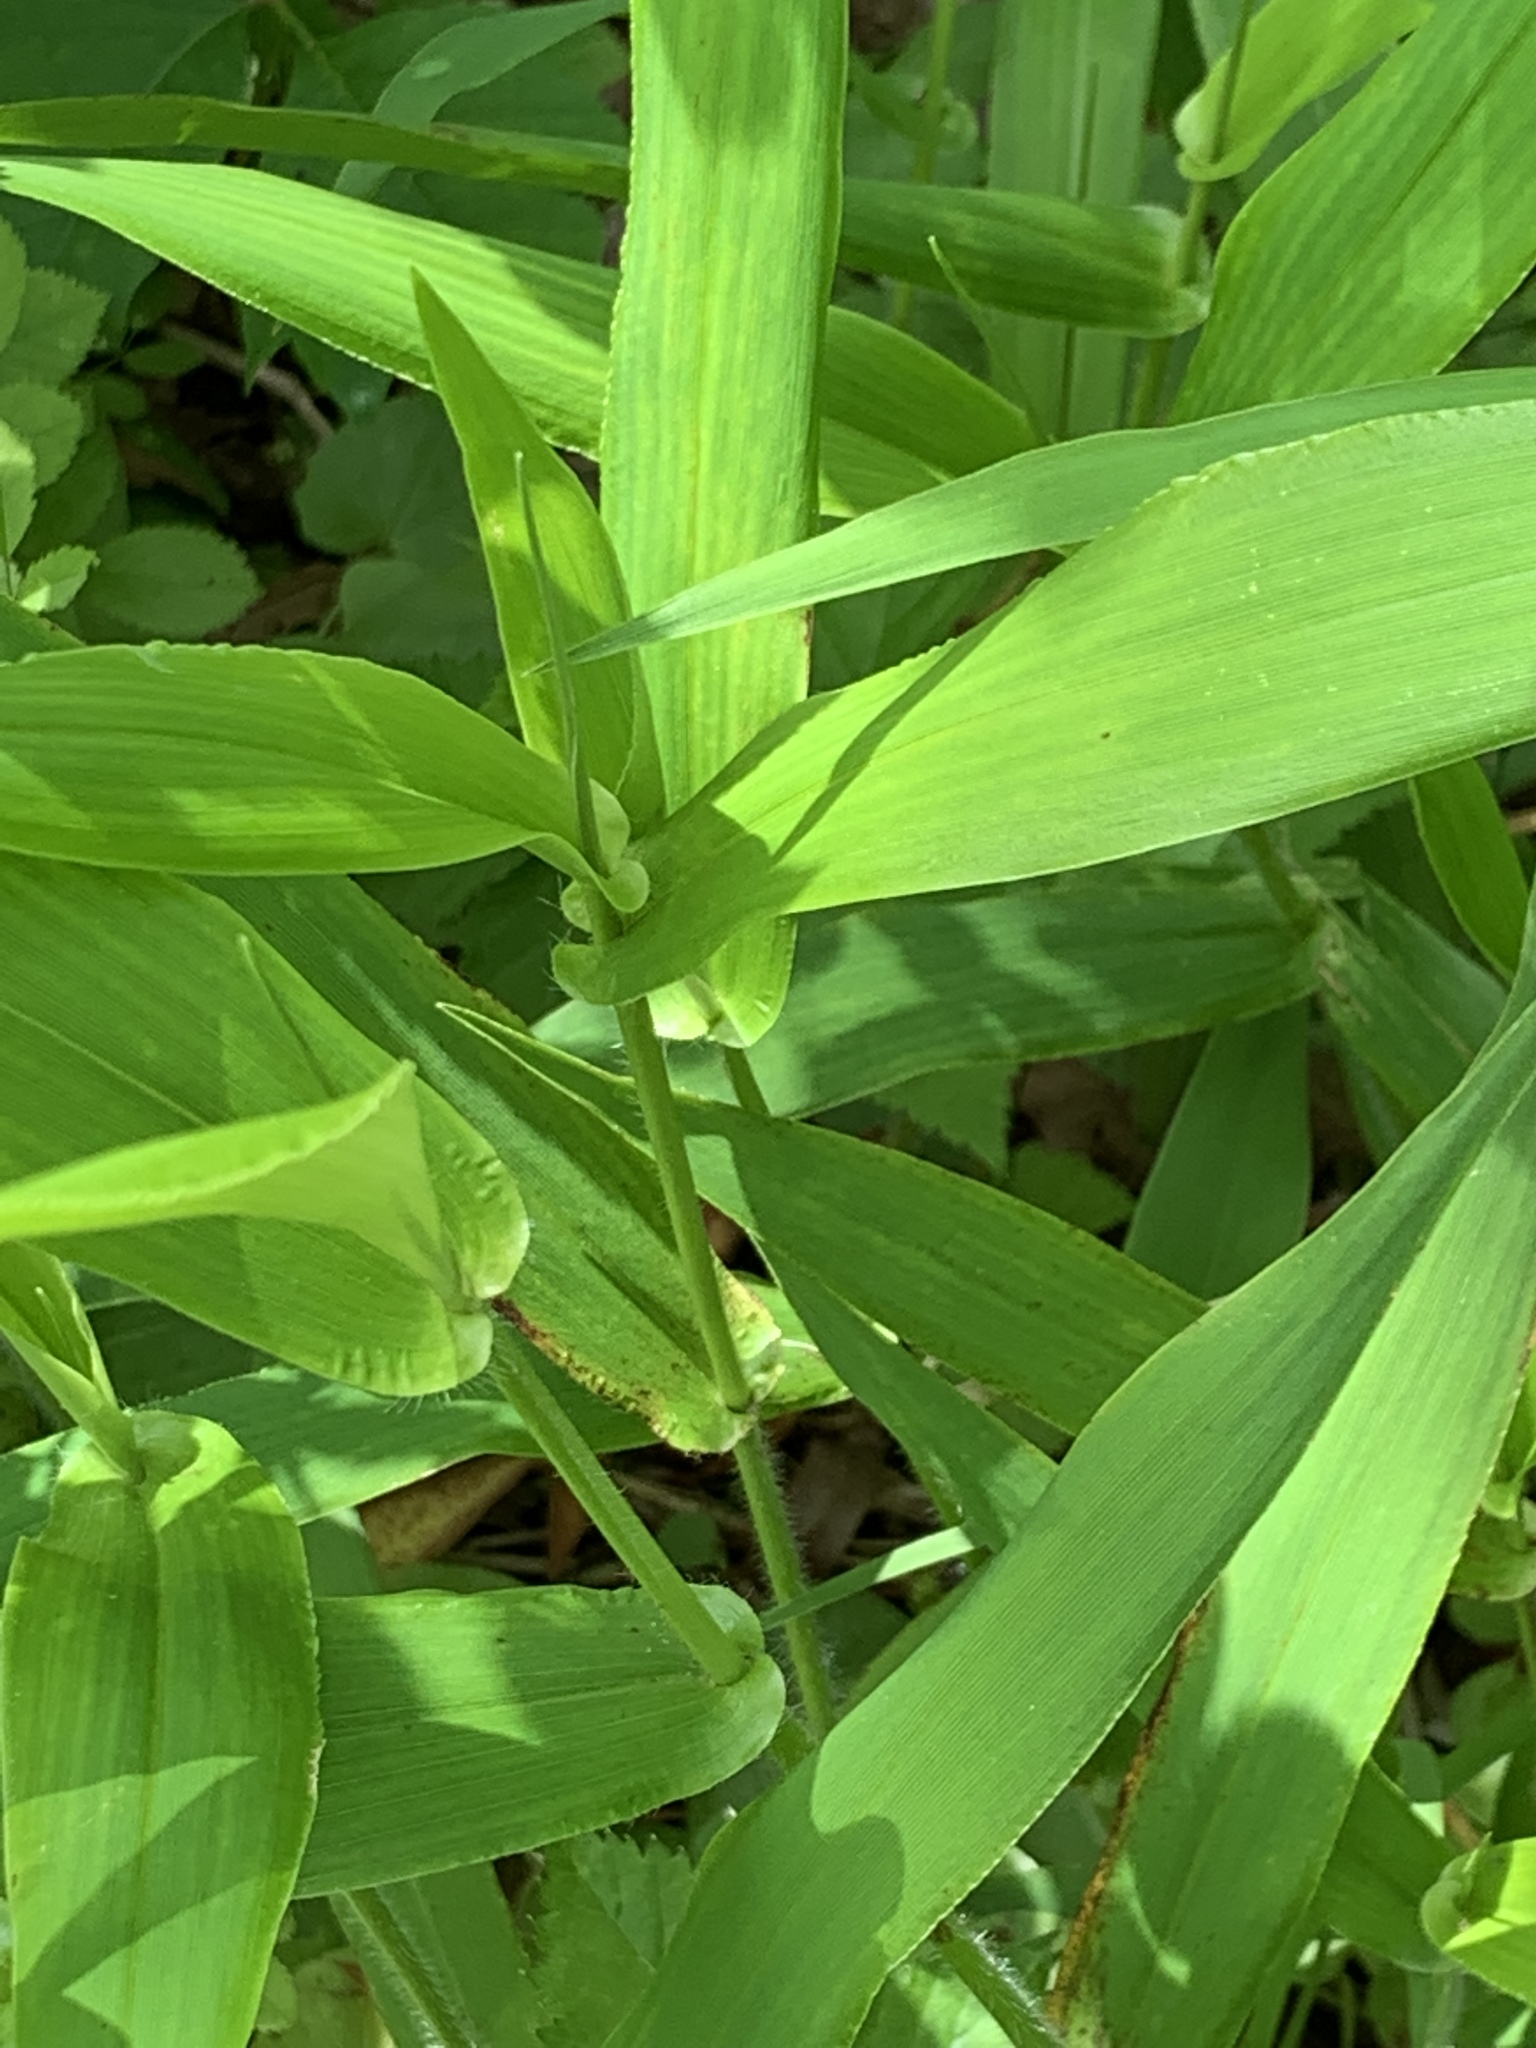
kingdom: Plantae
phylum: Tracheophyta
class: Liliopsida
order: Poales
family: Poaceae
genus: Dichanthelium
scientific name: Dichanthelium clandestinum
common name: Deer-tongue grass
